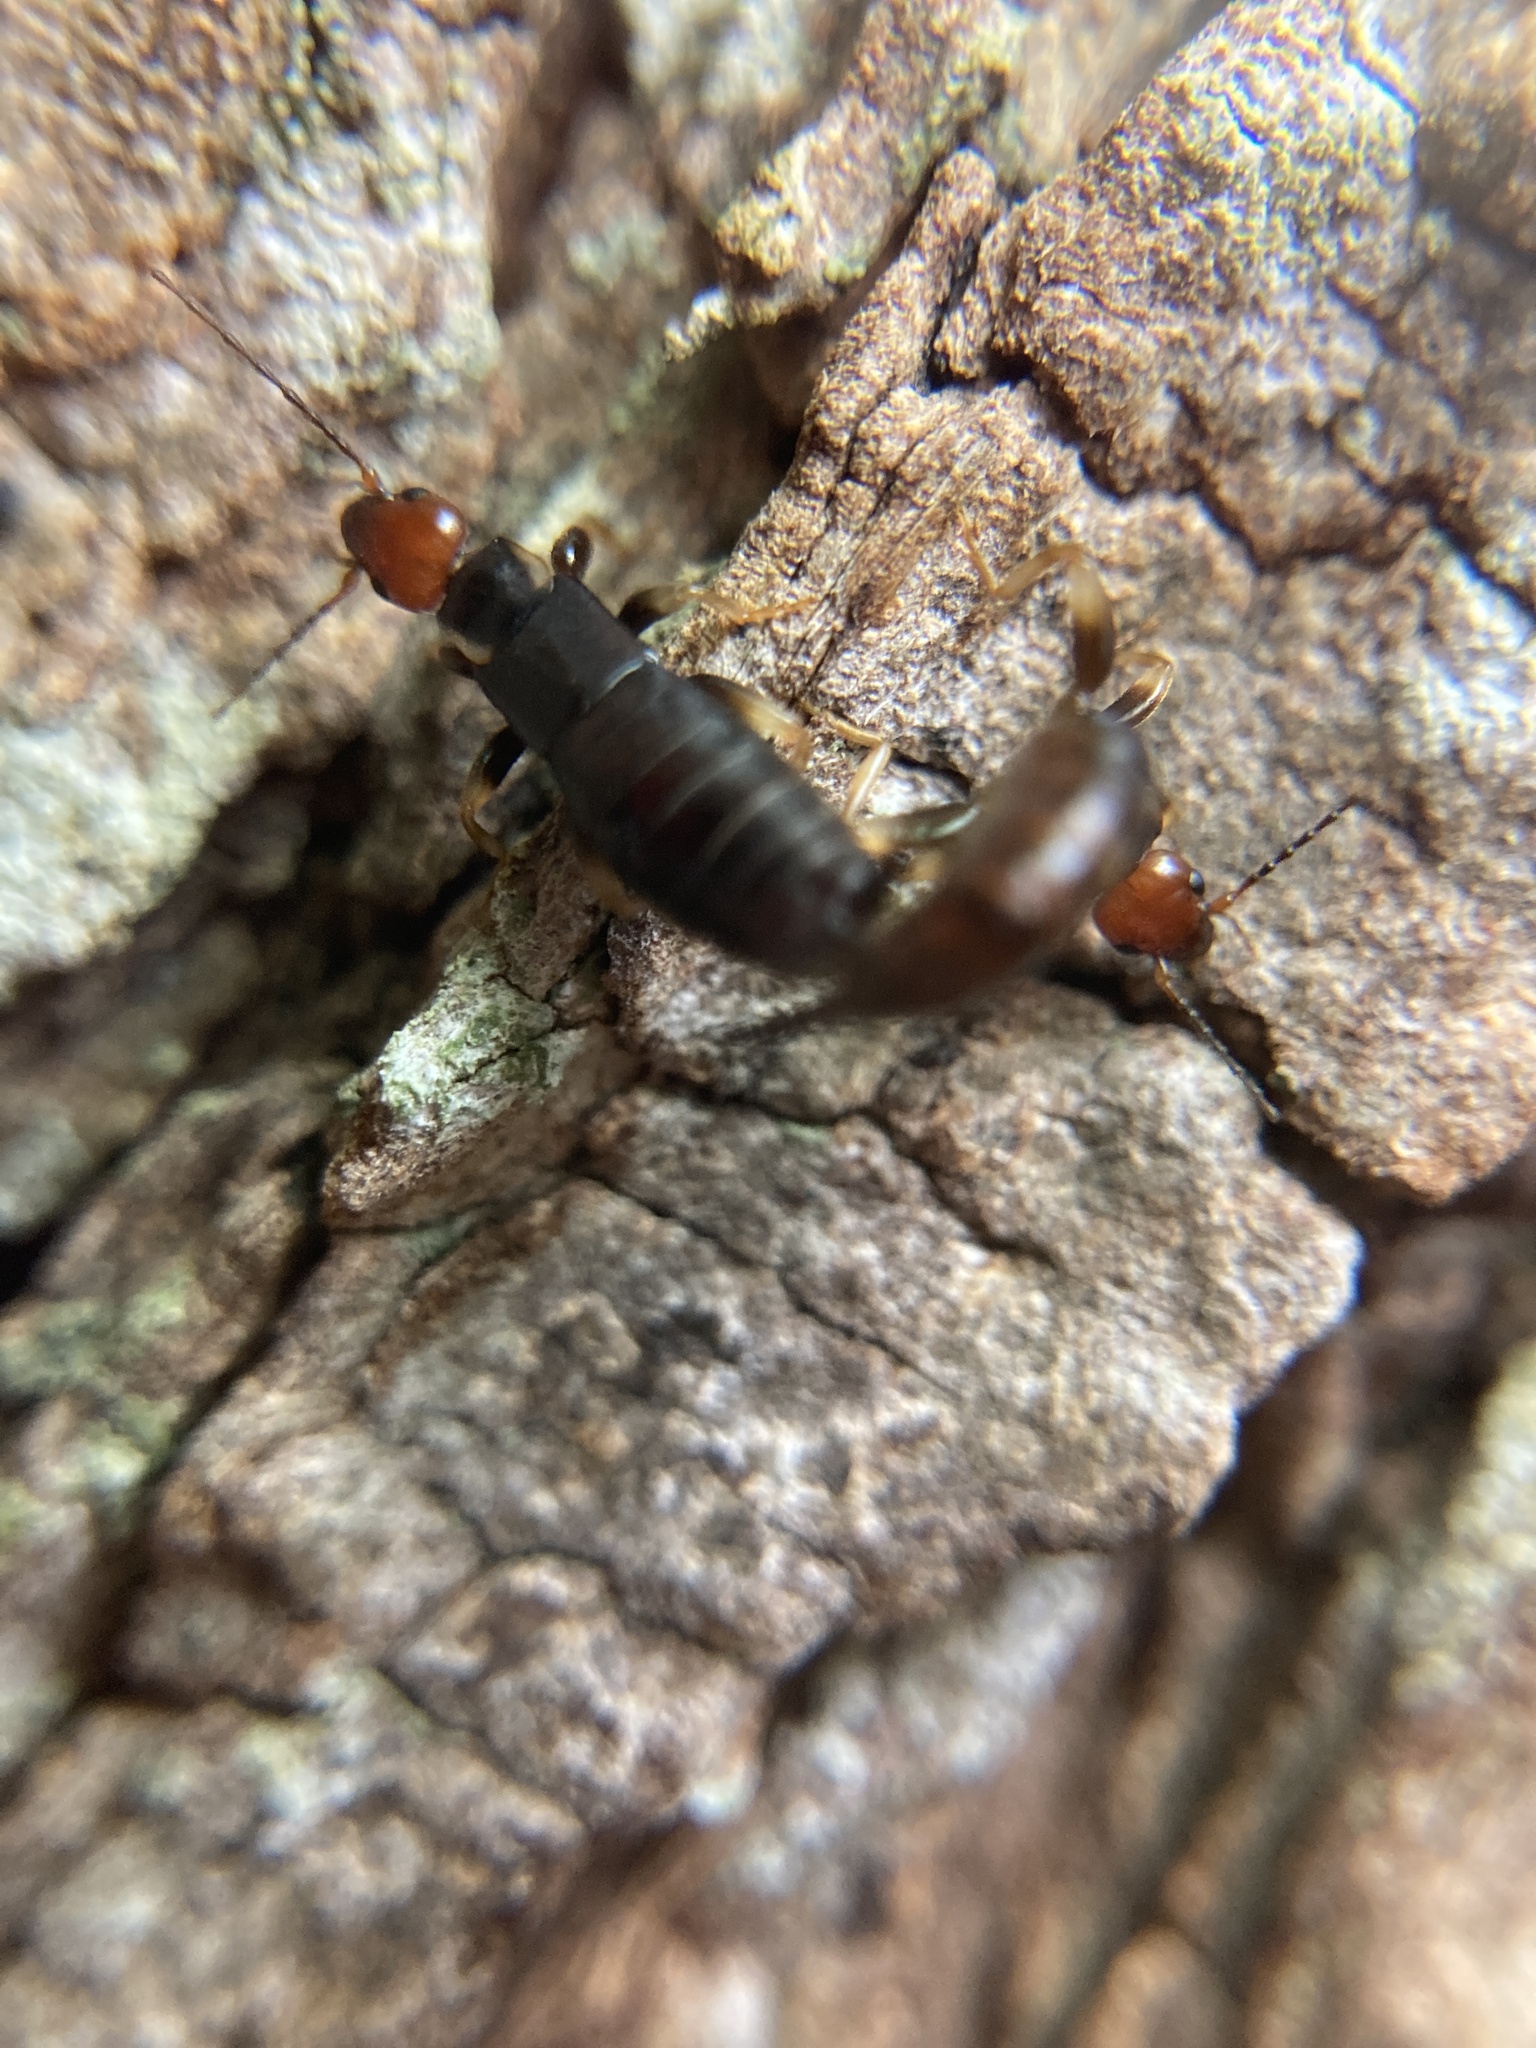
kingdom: Animalia
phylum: Arthropoda
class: Insecta
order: Dermaptera
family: Spongiphoridae
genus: Nesogaster
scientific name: Nesogaster ruficeps
